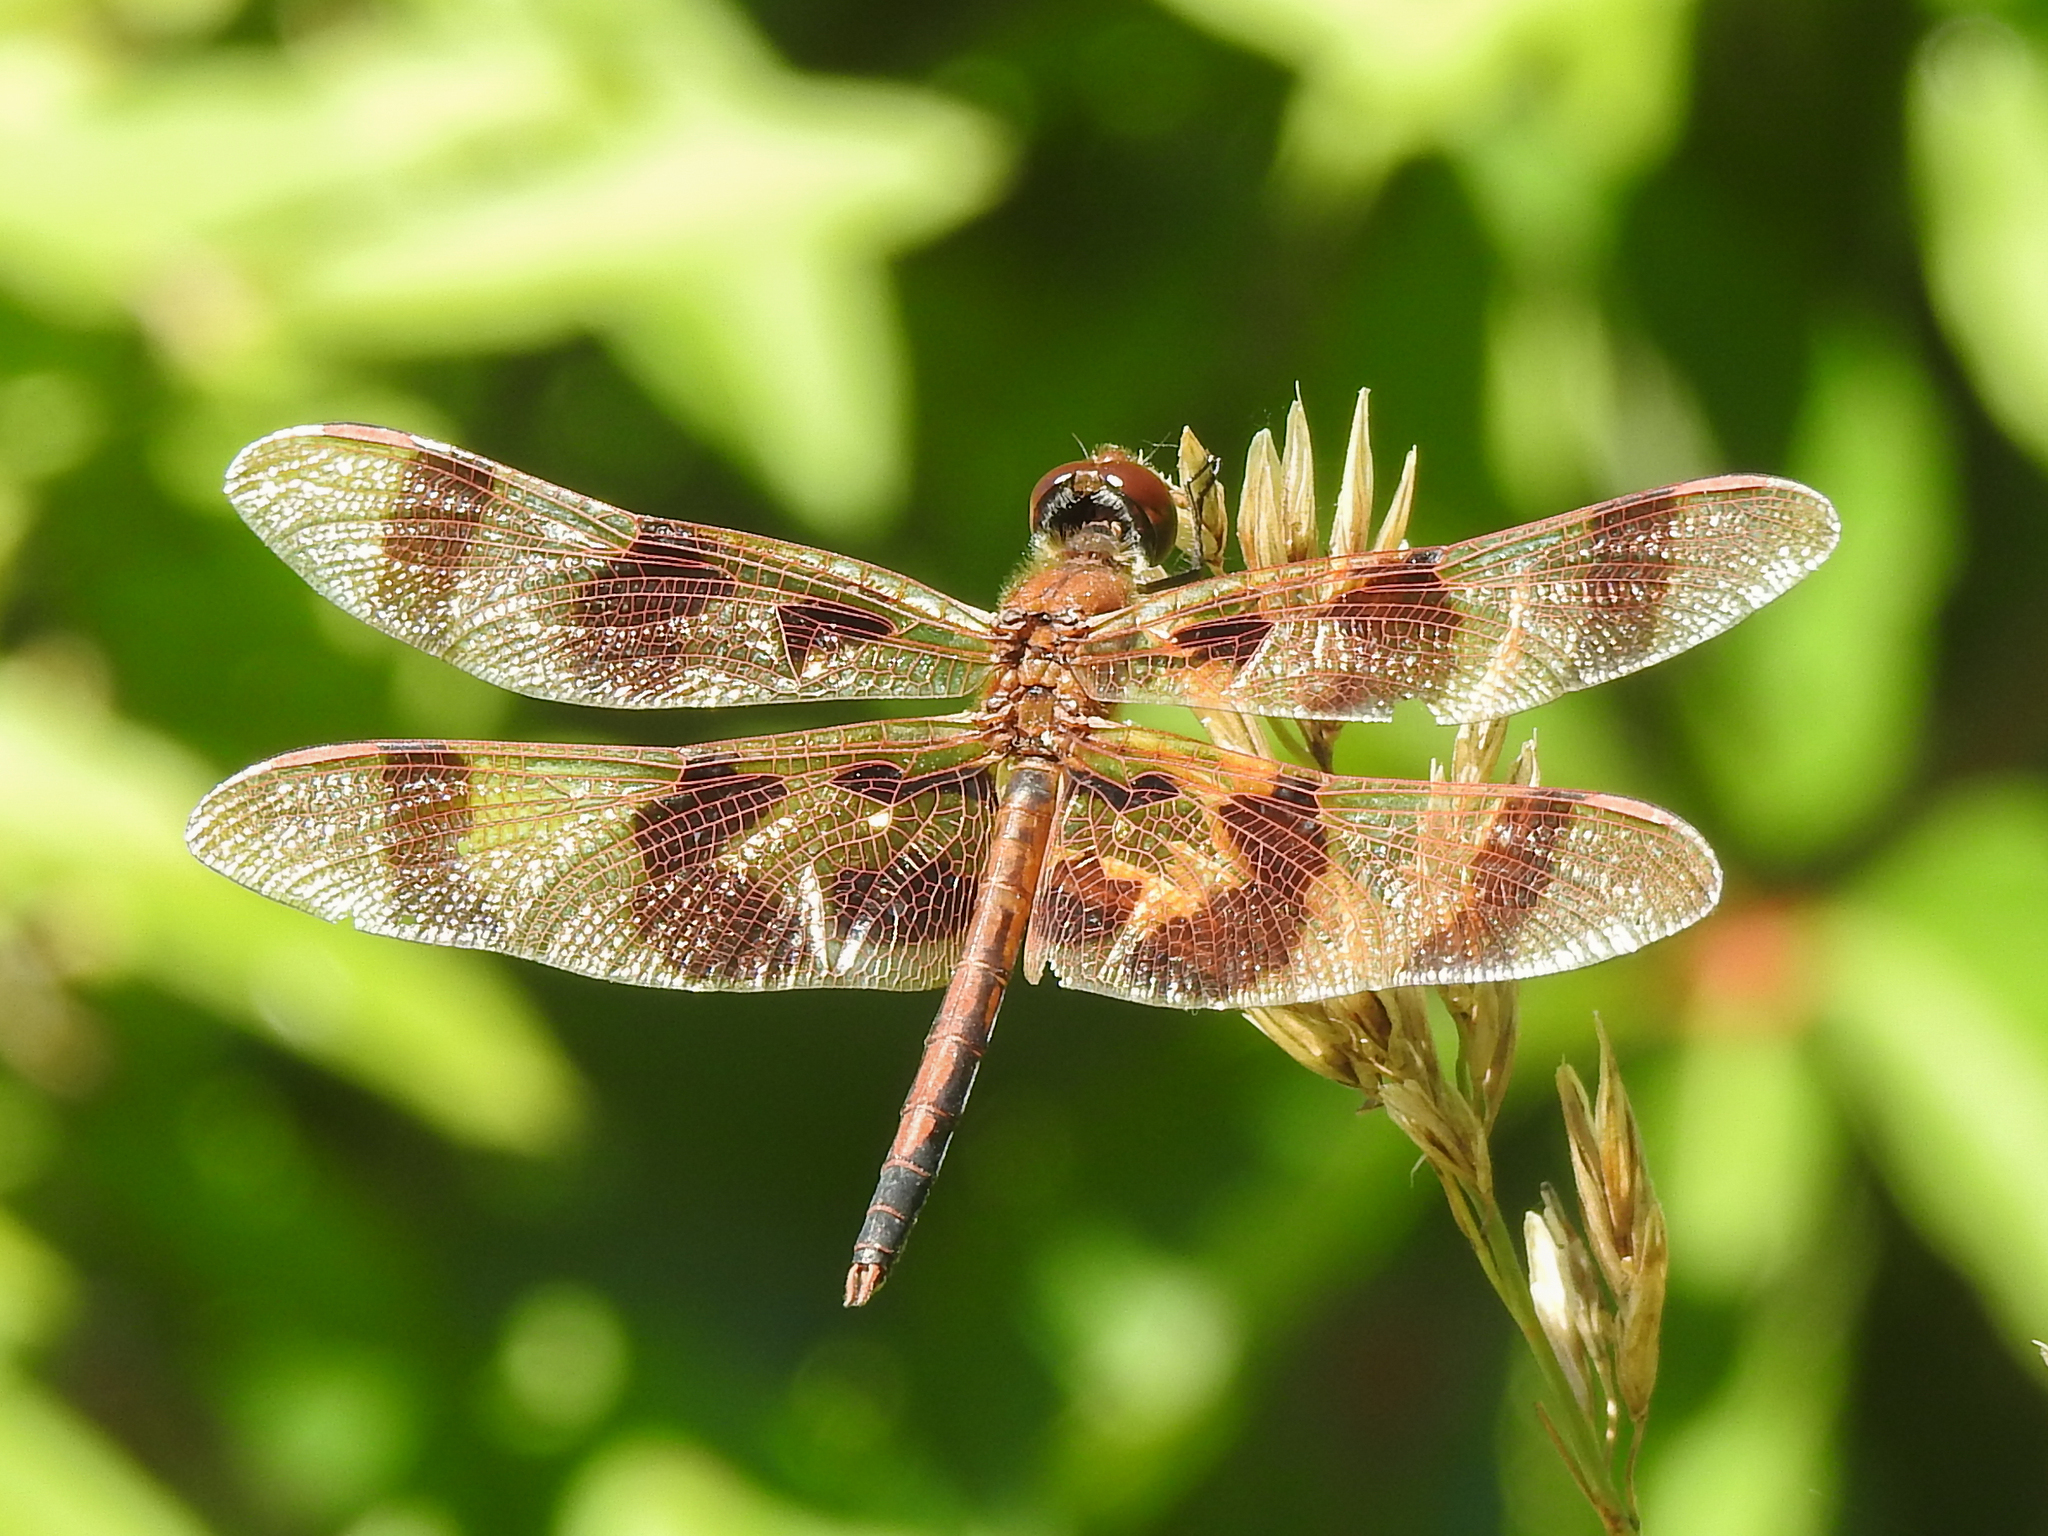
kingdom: Animalia
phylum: Arthropoda
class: Insecta
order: Odonata
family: Libellulidae
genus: Celithemis
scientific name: Celithemis eponina
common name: Halloween pennant
